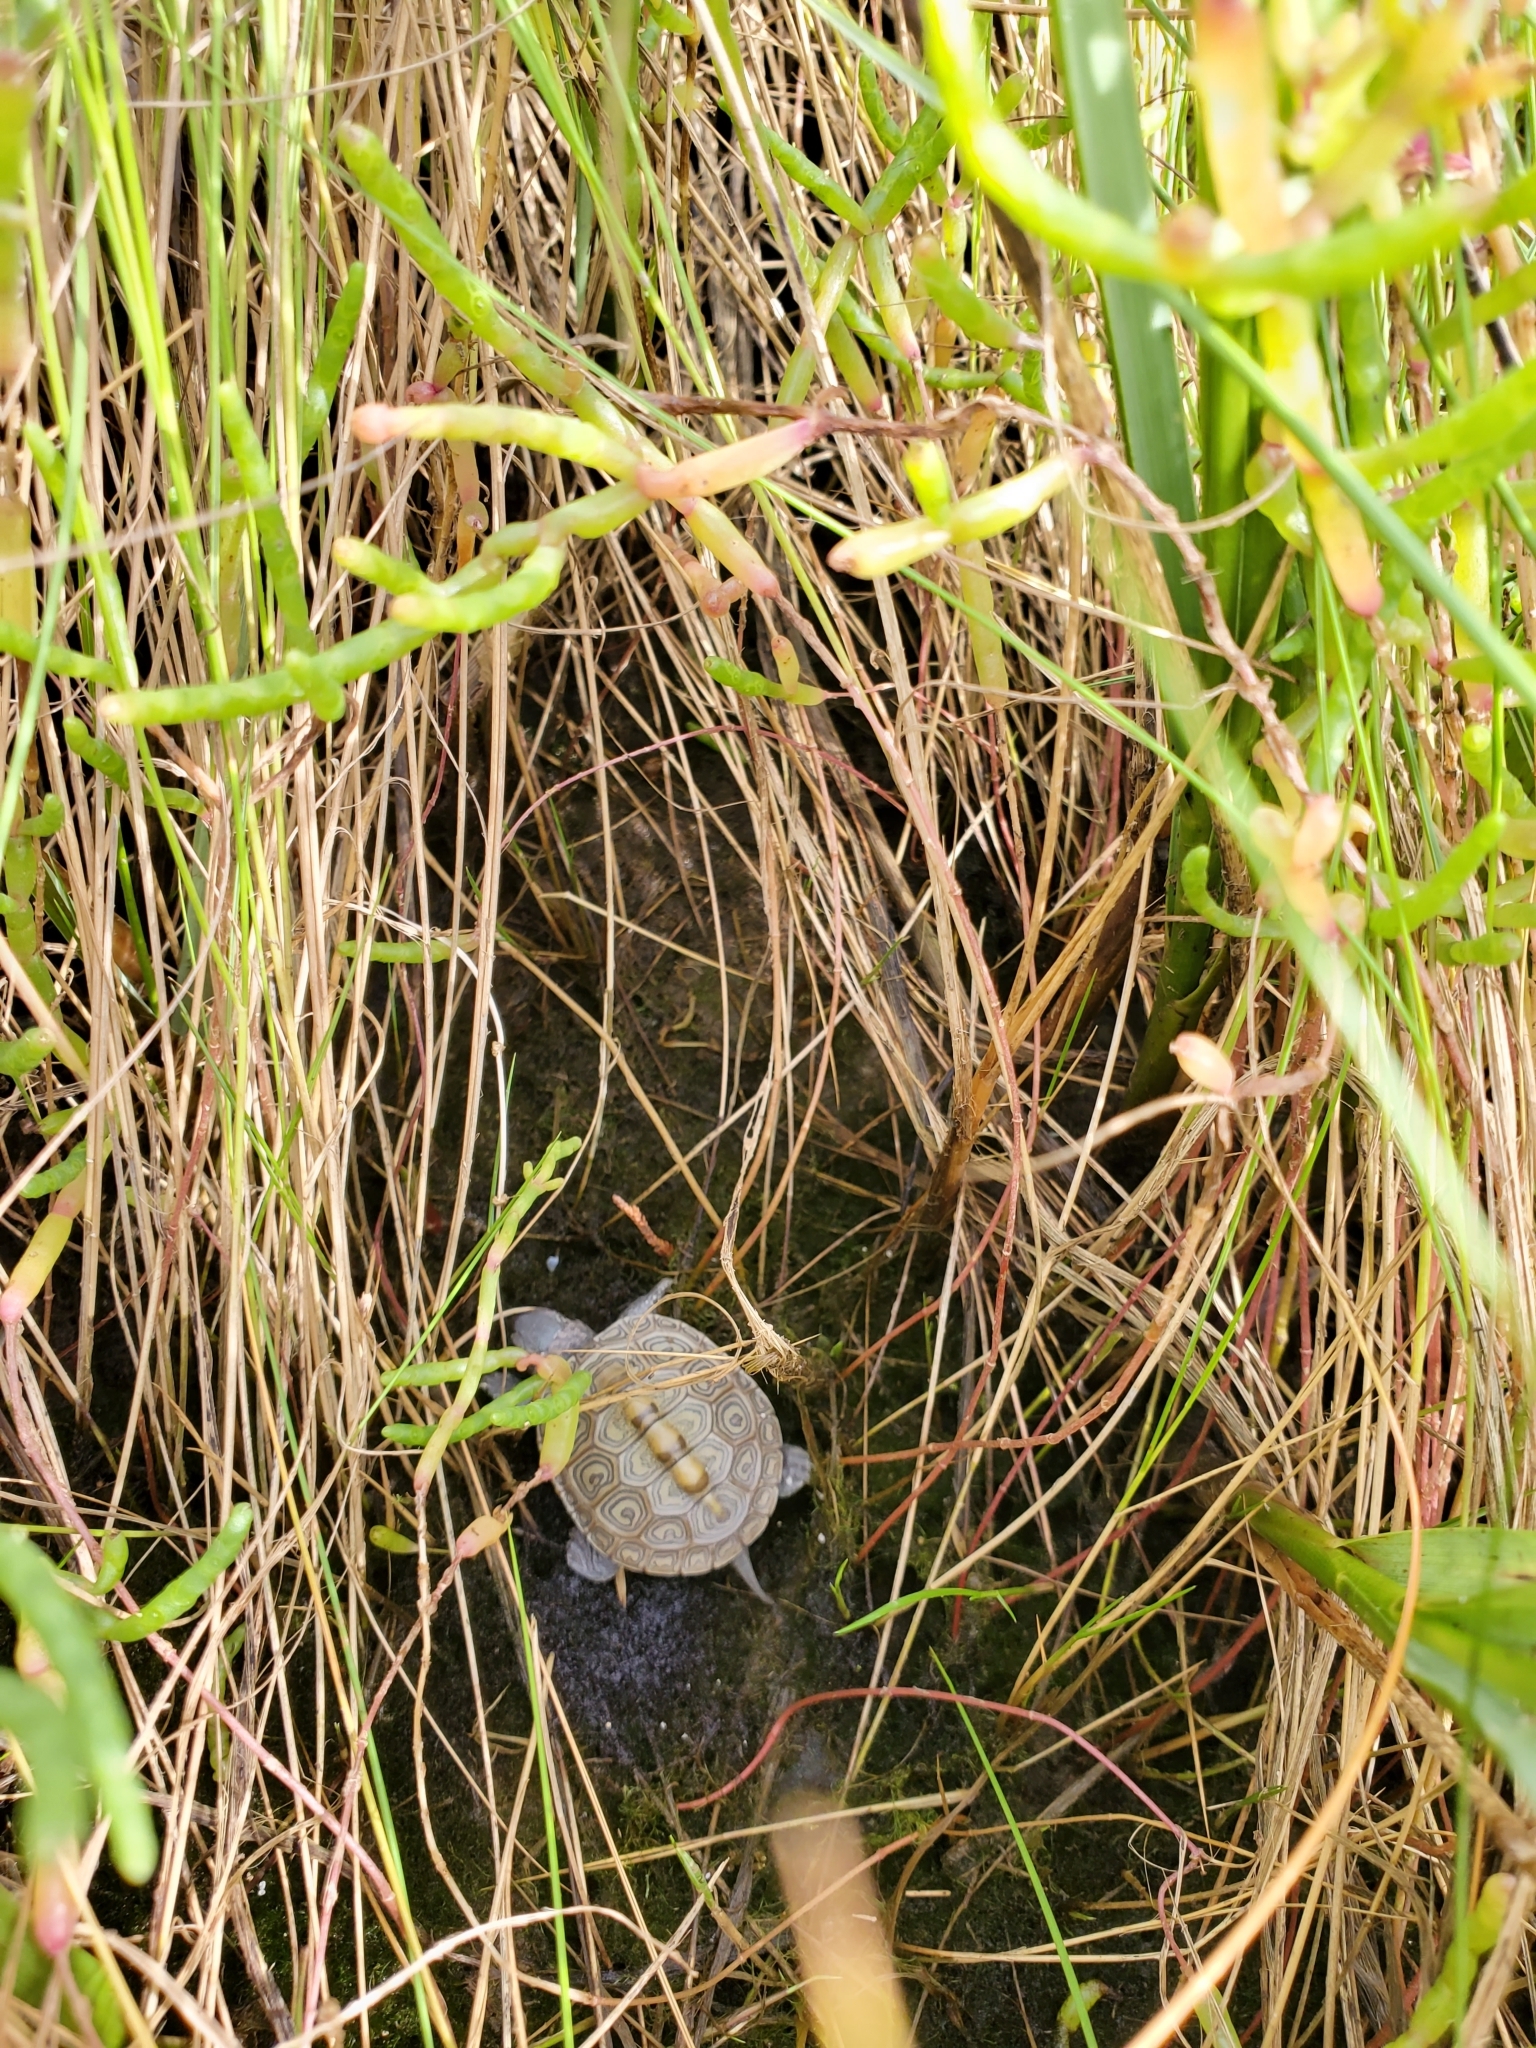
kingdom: Animalia
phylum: Chordata
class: Testudines
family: Emydidae
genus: Malaclemys
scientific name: Malaclemys terrapin
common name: Diamondback terrapin
